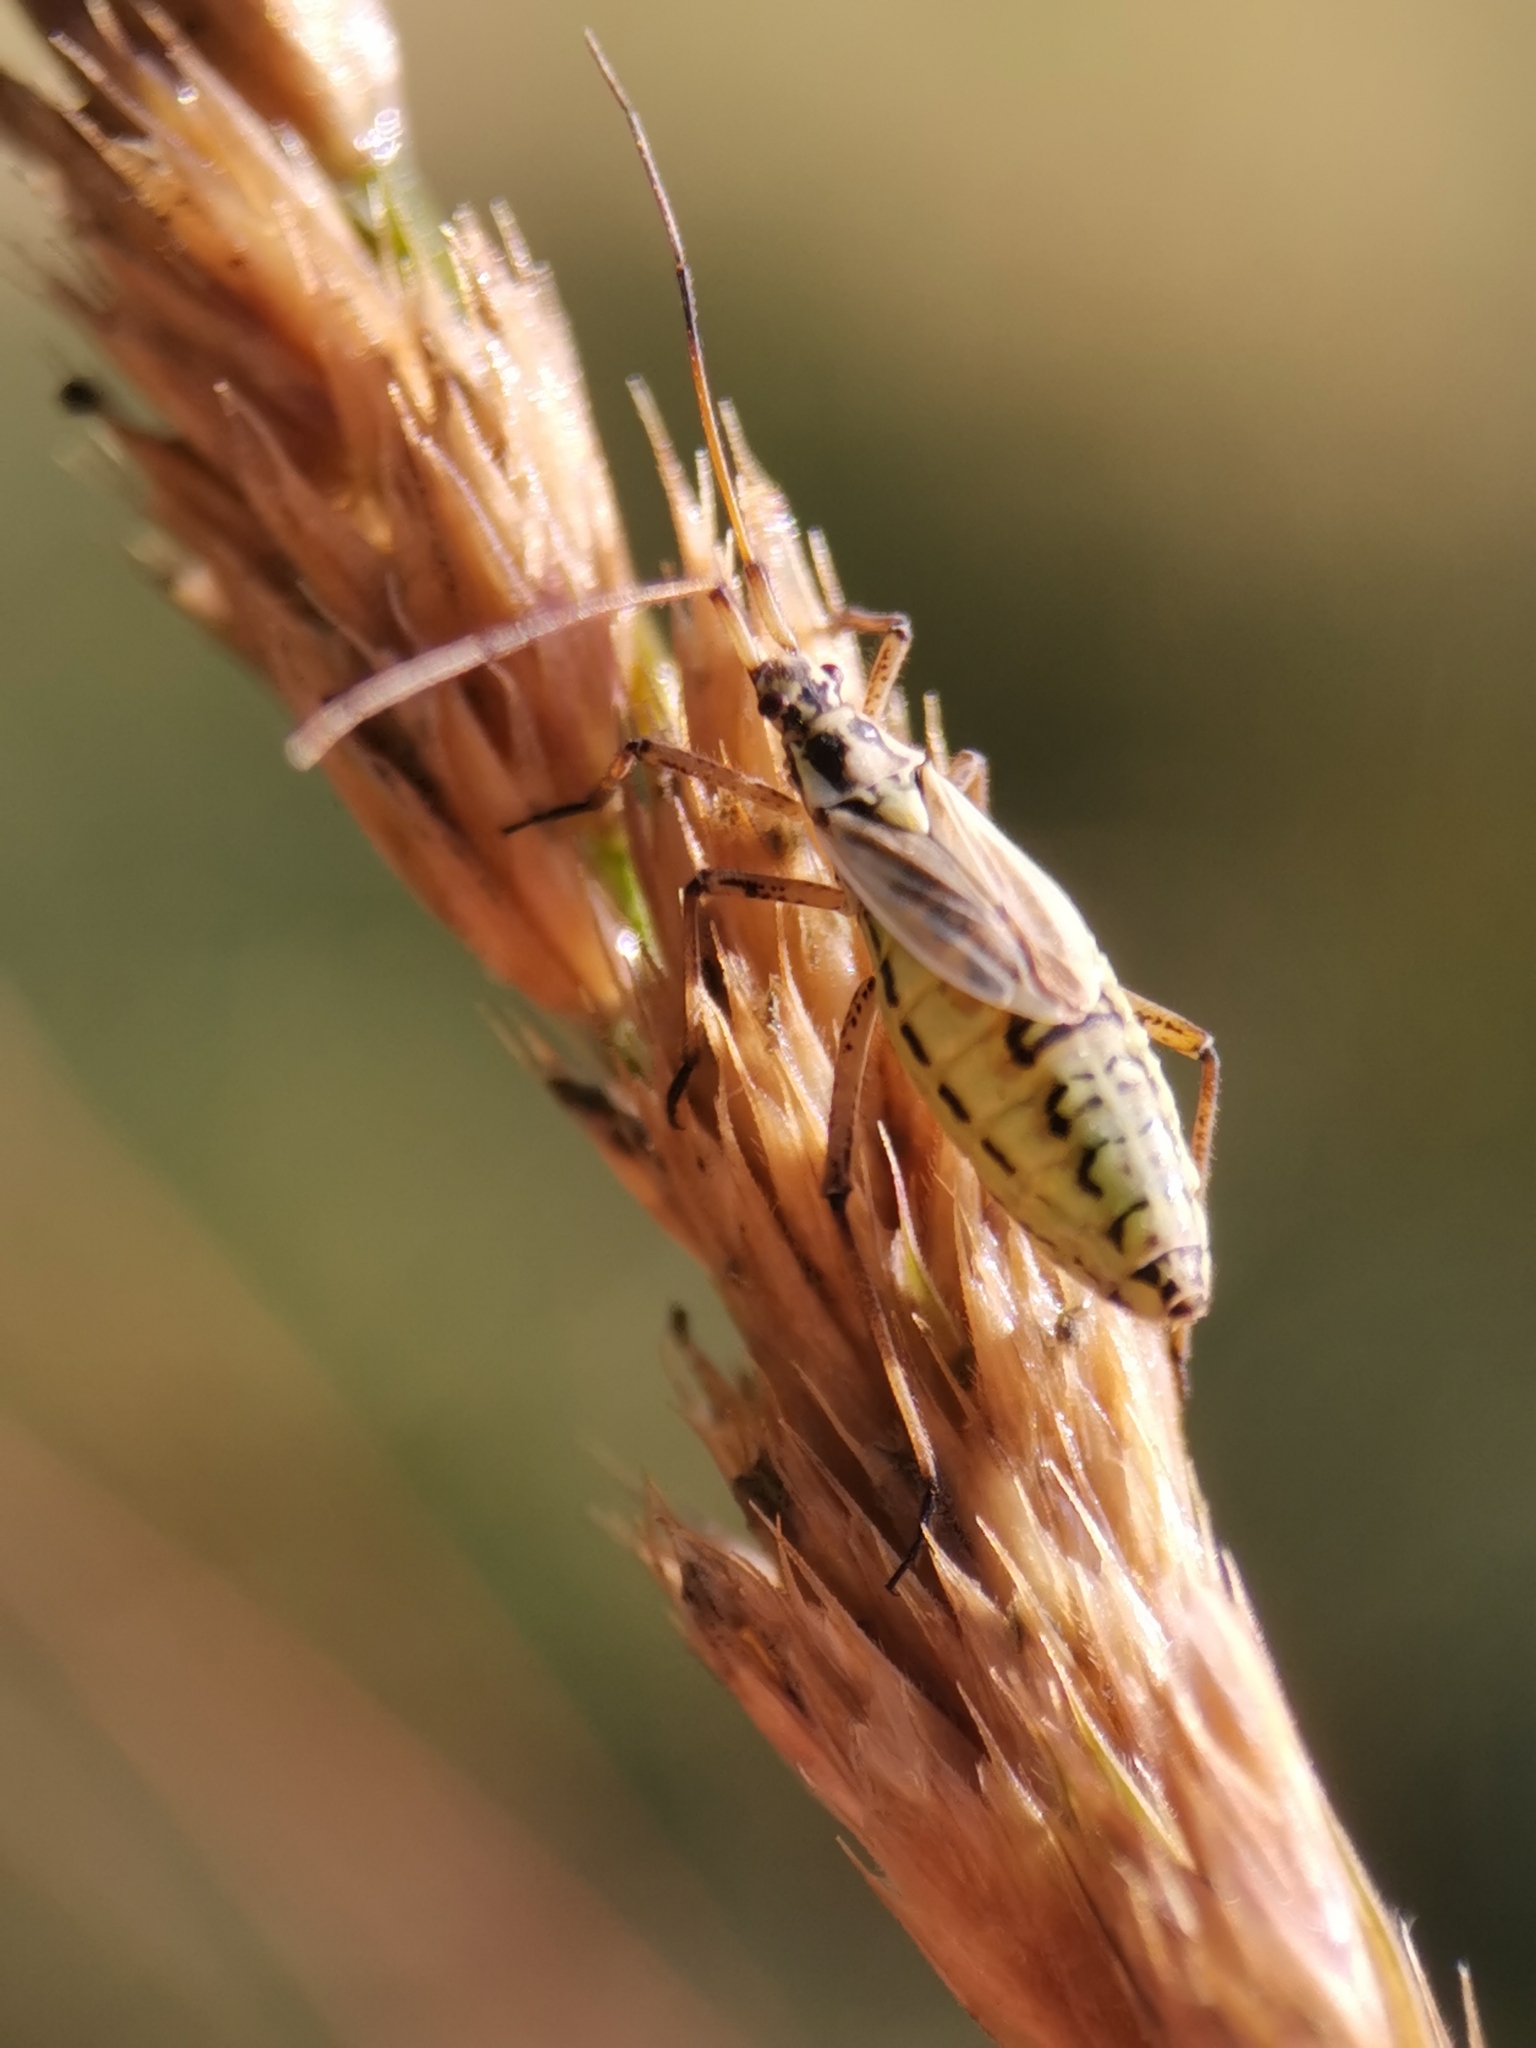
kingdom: Animalia
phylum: Arthropoda
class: Insecta
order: Hemiptera
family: Miridae
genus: Leptopterna
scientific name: Leptopterna dolabrata
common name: Meadow plant bug
